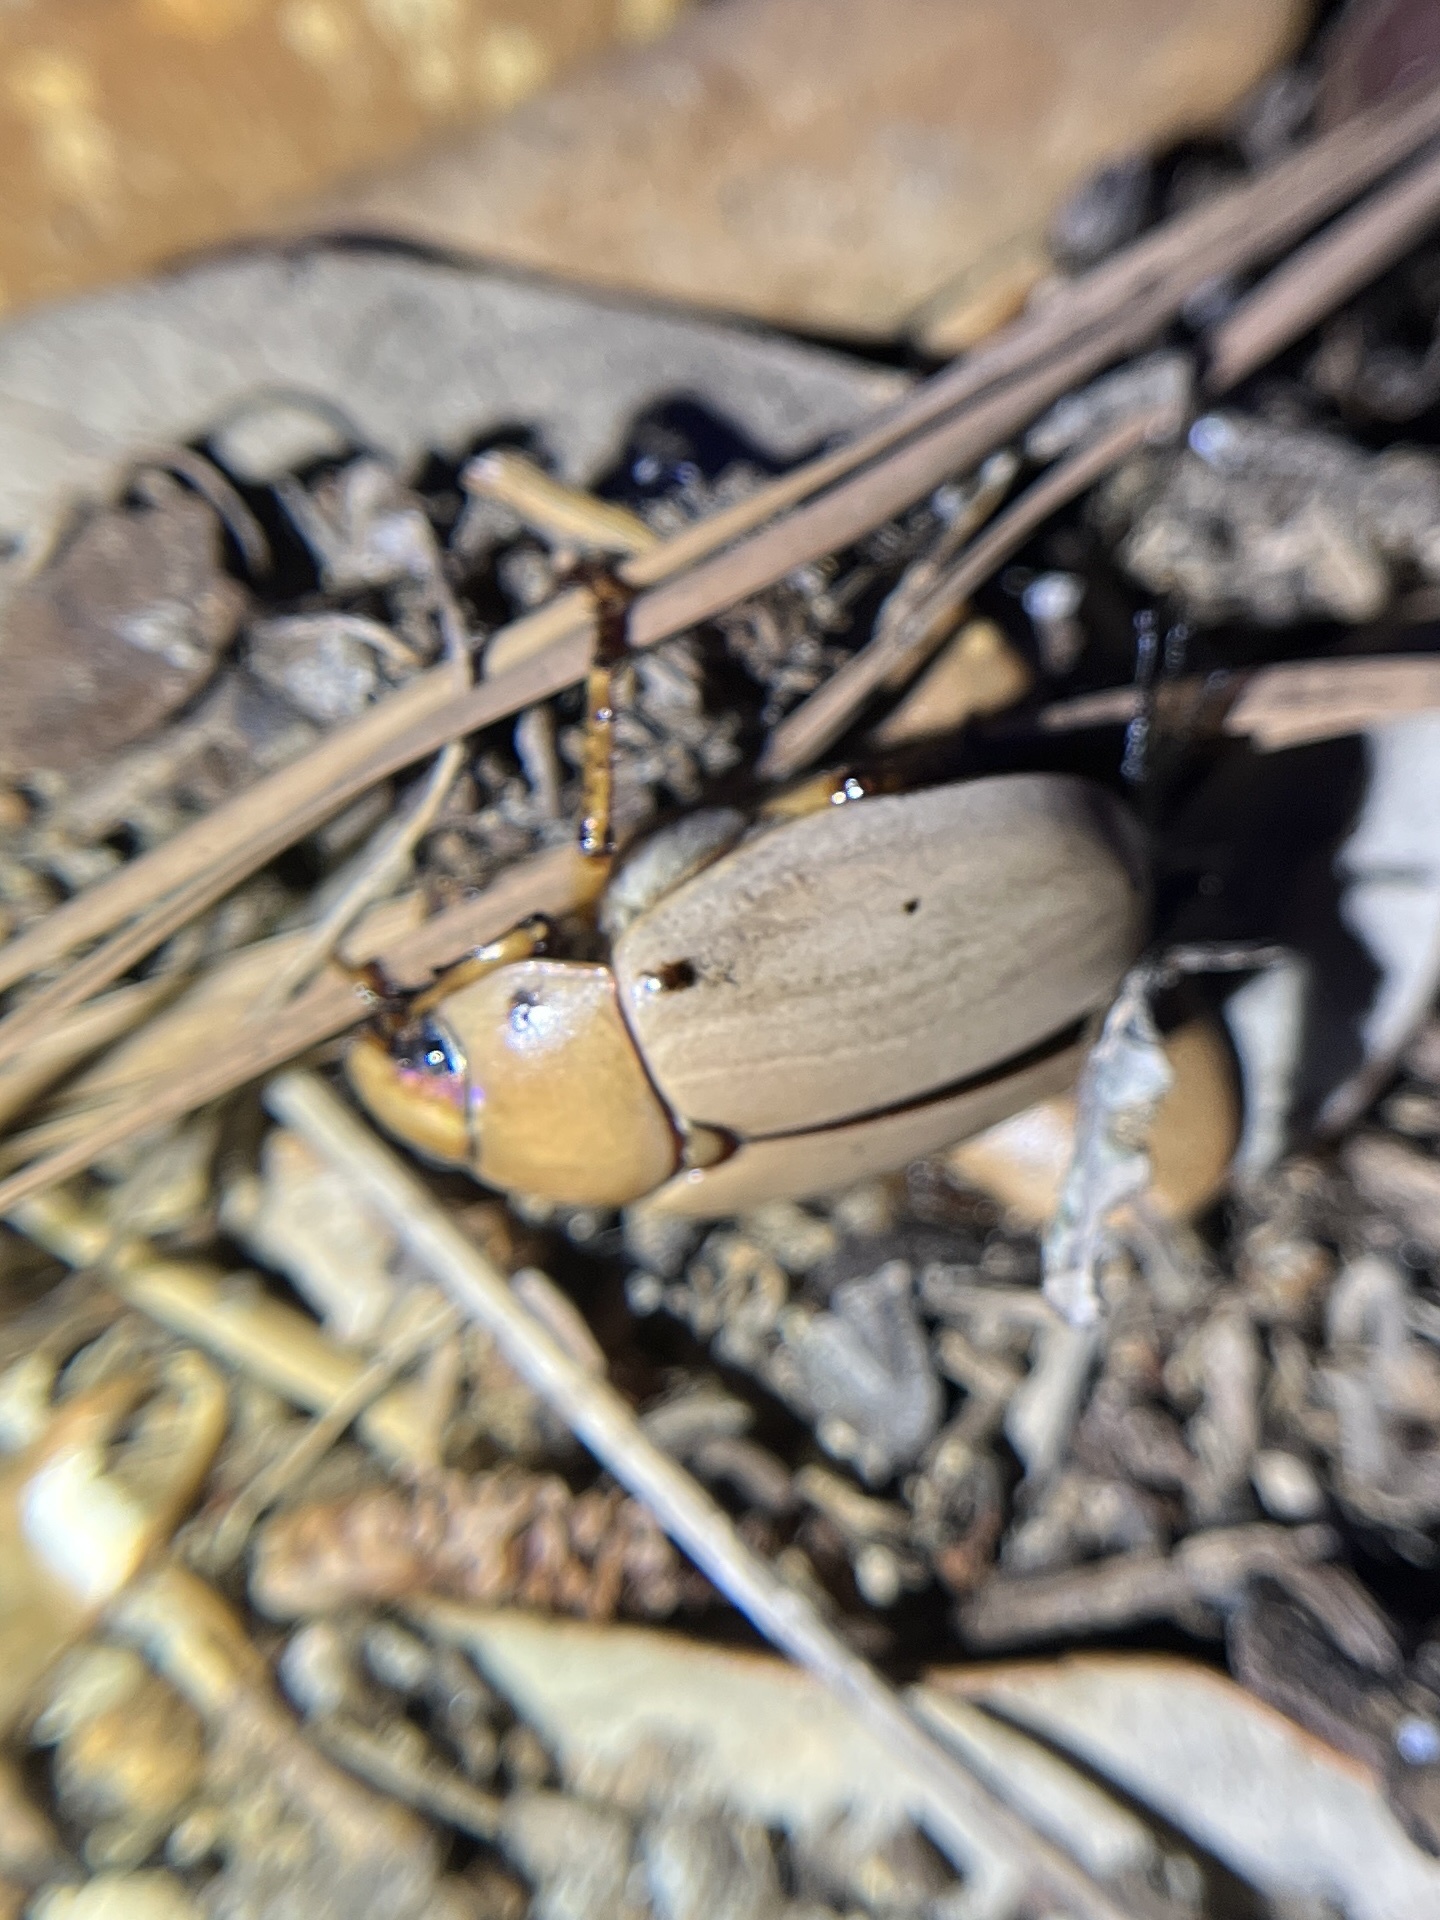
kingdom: Animalia
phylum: Arthropoda
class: Insecta
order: Coleoptera
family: Scarabaeidae
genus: Pelidnota
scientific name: Pelidnota punctata
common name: Grapevine beetle
